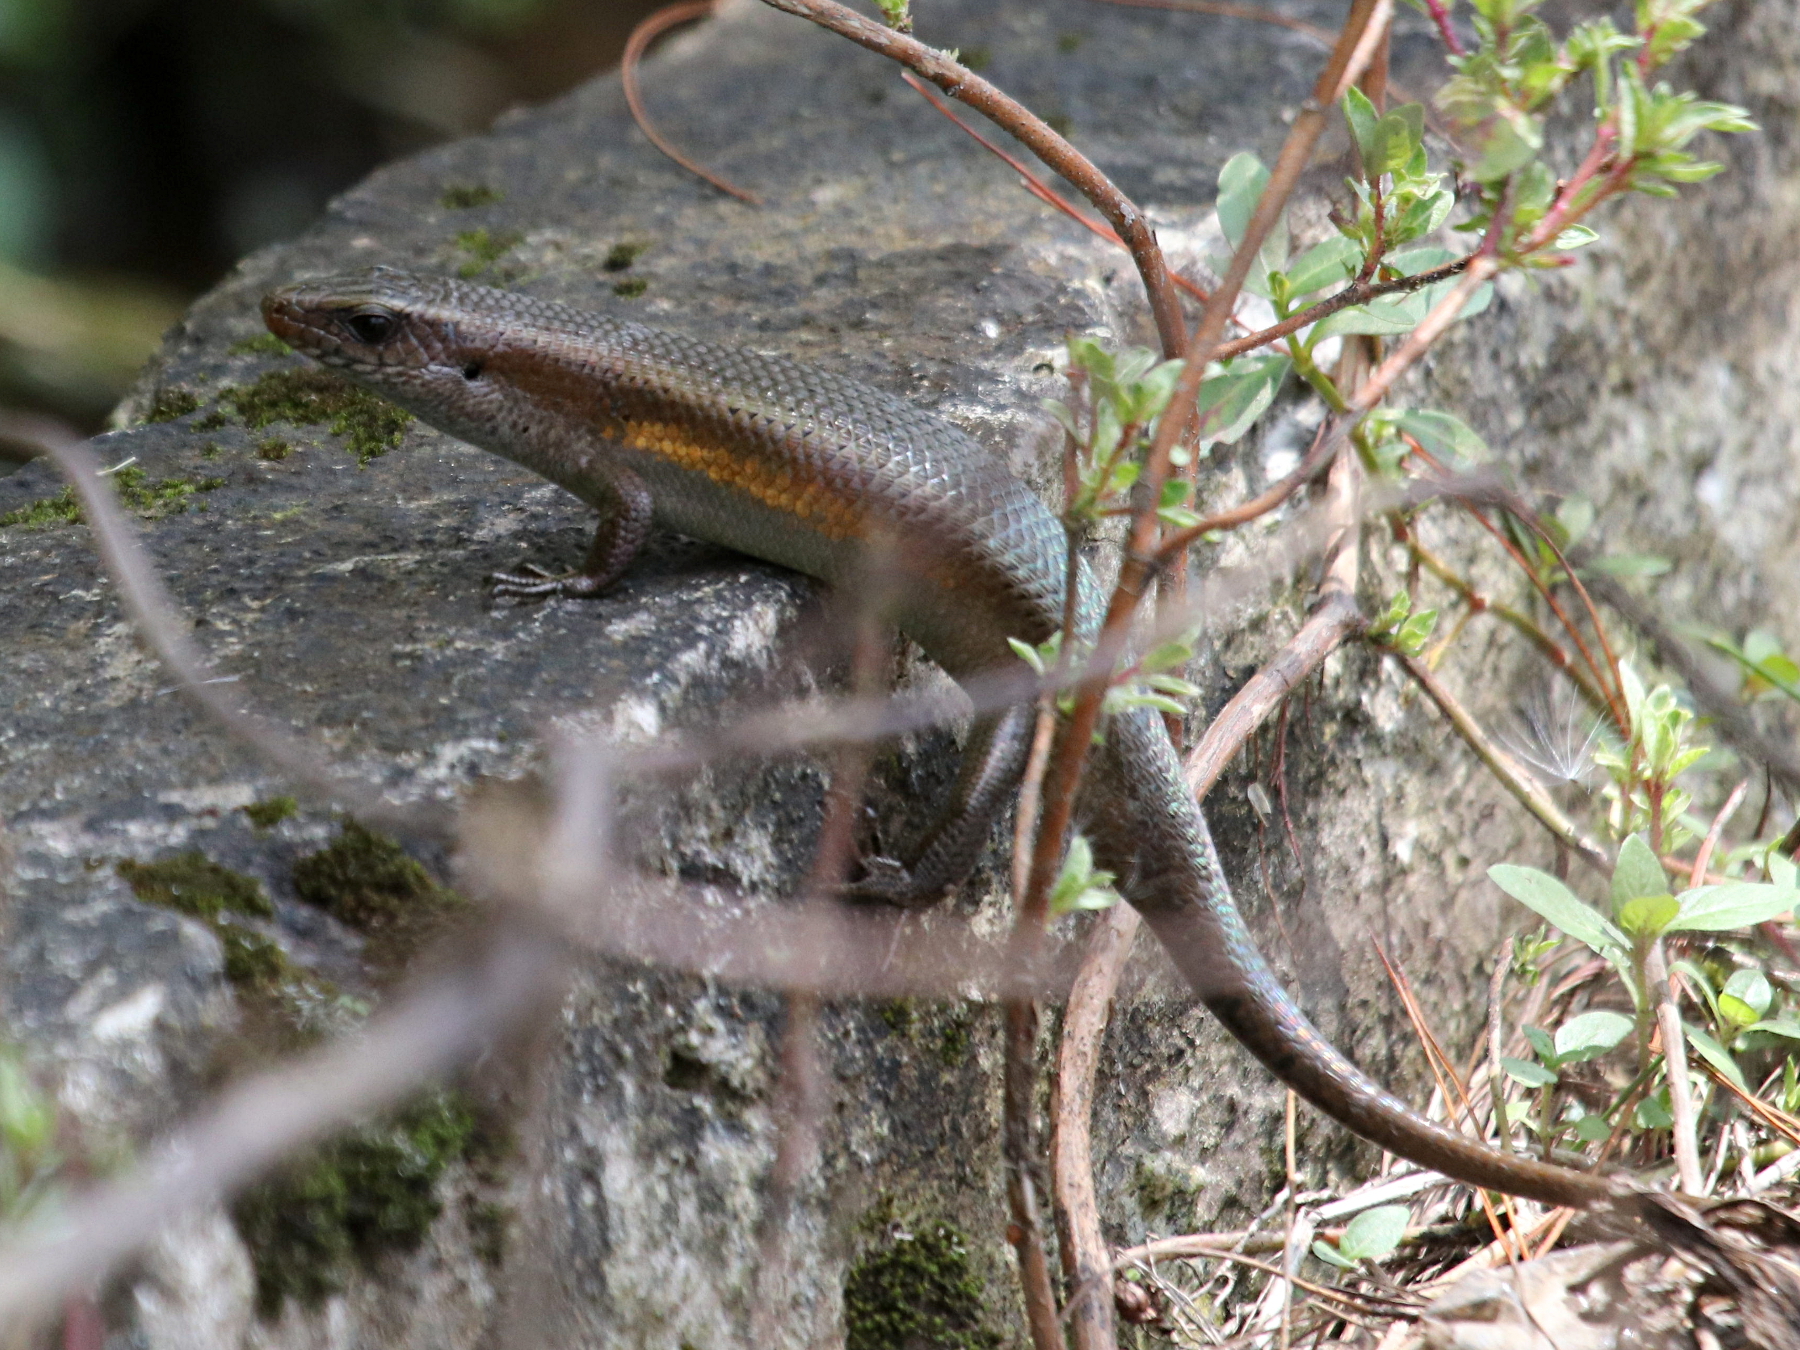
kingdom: Animalia
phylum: Chordata
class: Squamata
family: Scincidae
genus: Eutropis
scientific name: Eutropis multifasciata
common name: Common mabuya
